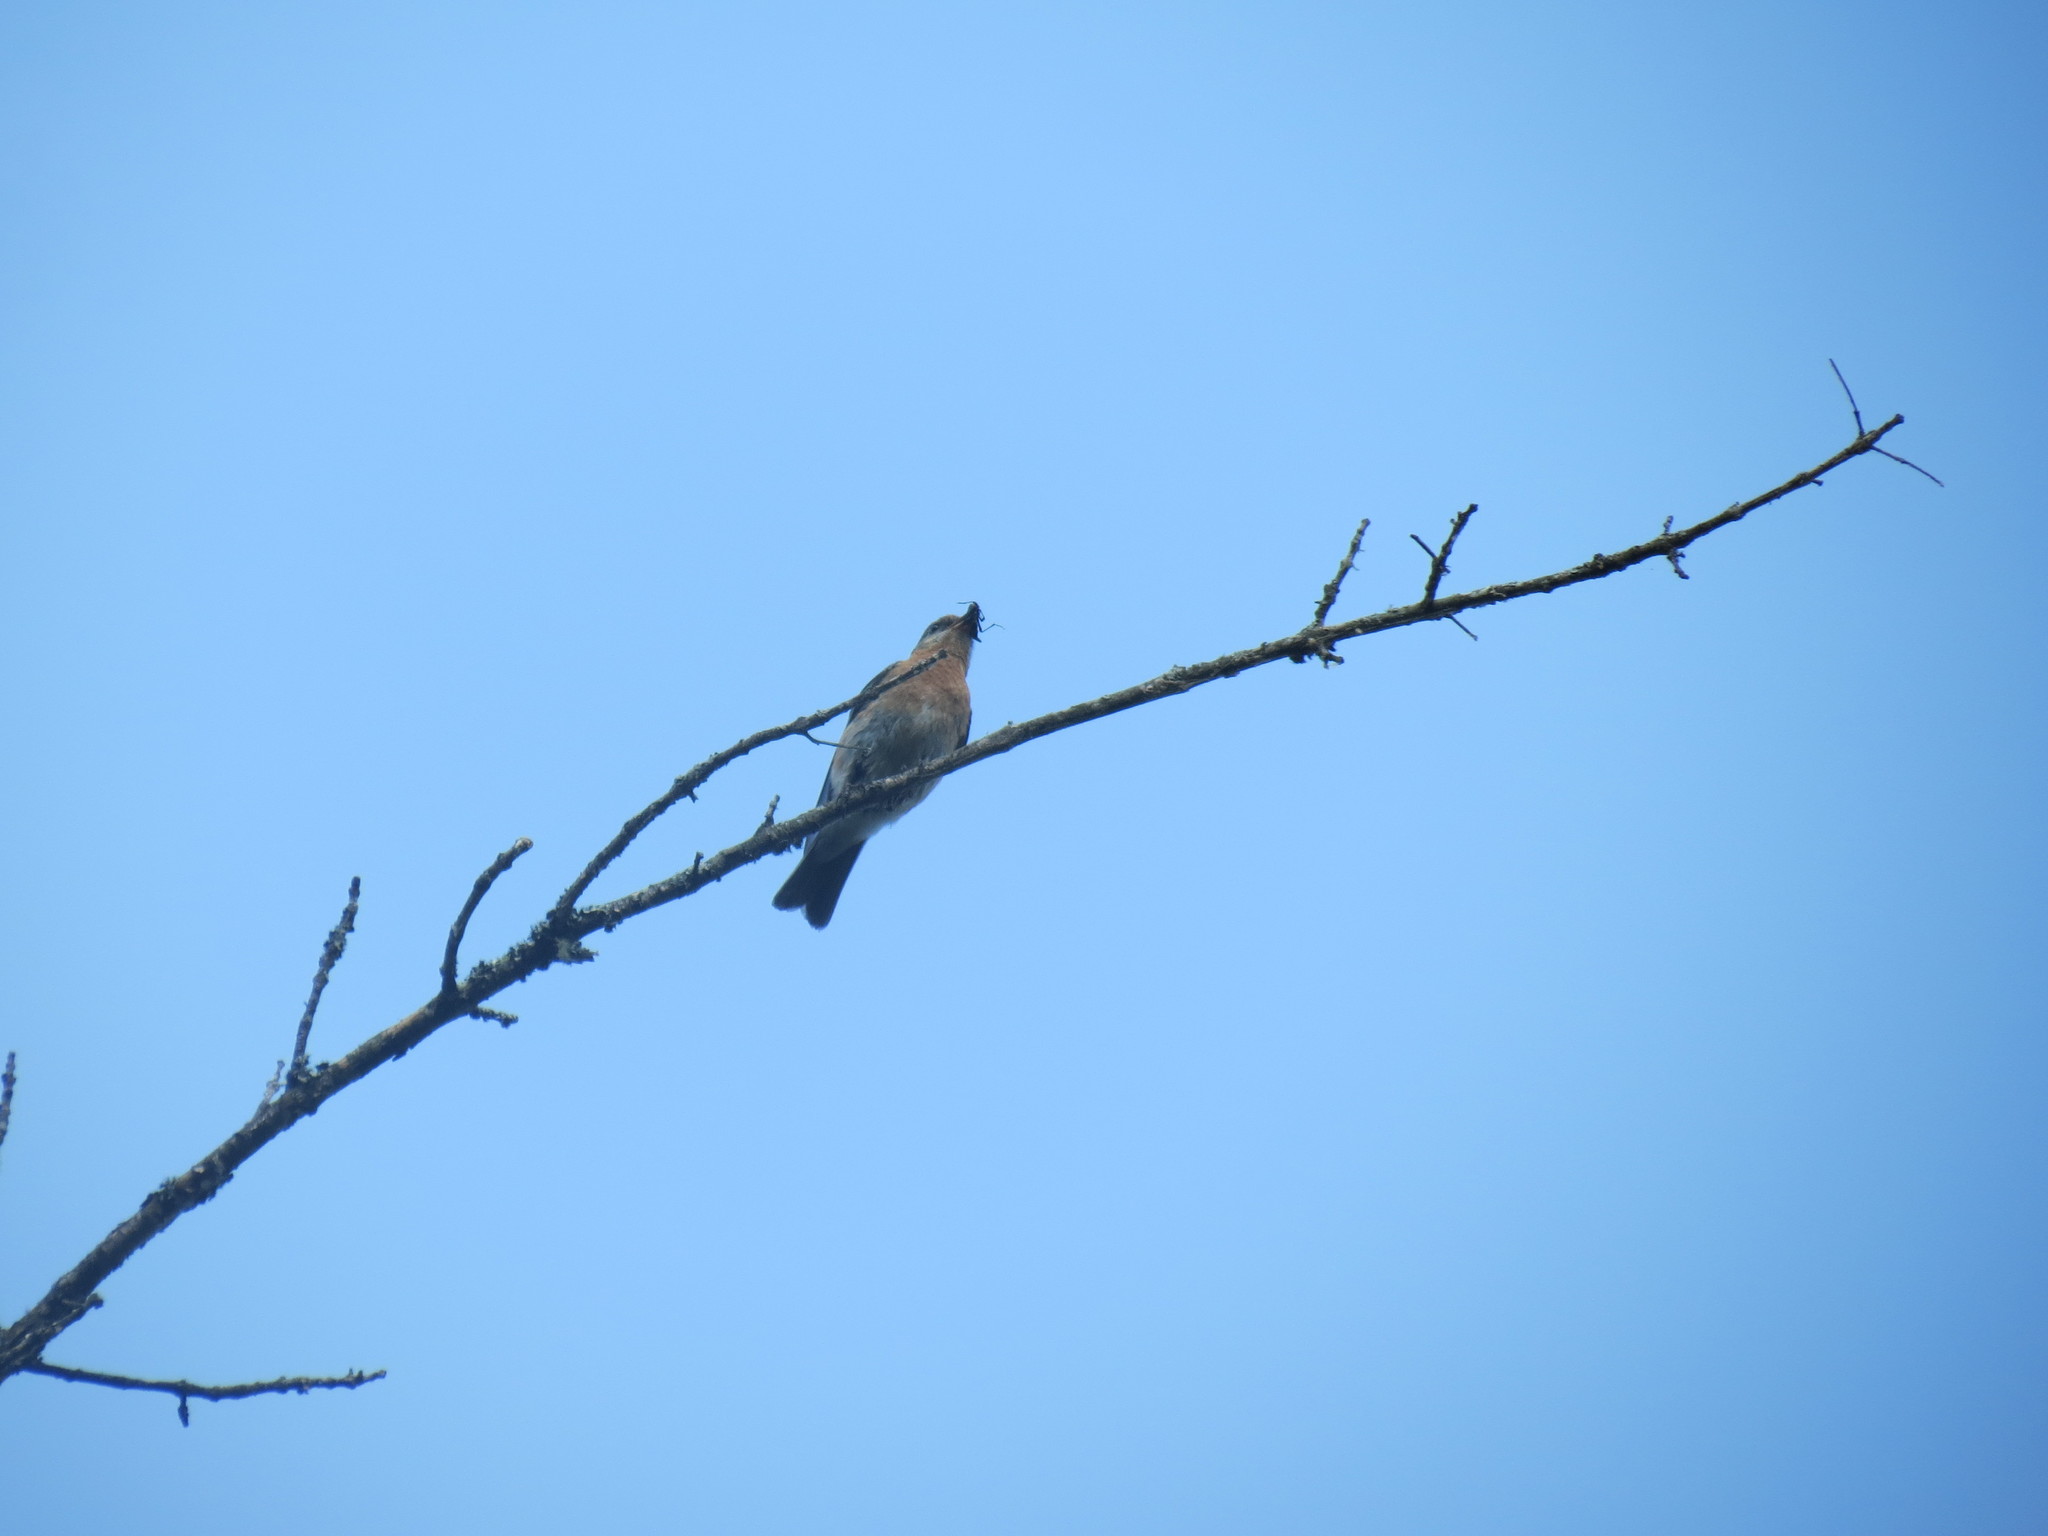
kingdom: Animalia
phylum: Chordata
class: Aves
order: Passeriformes
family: Turdidae
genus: Sialia
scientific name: Sialia sialis
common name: Eastern bluebird
